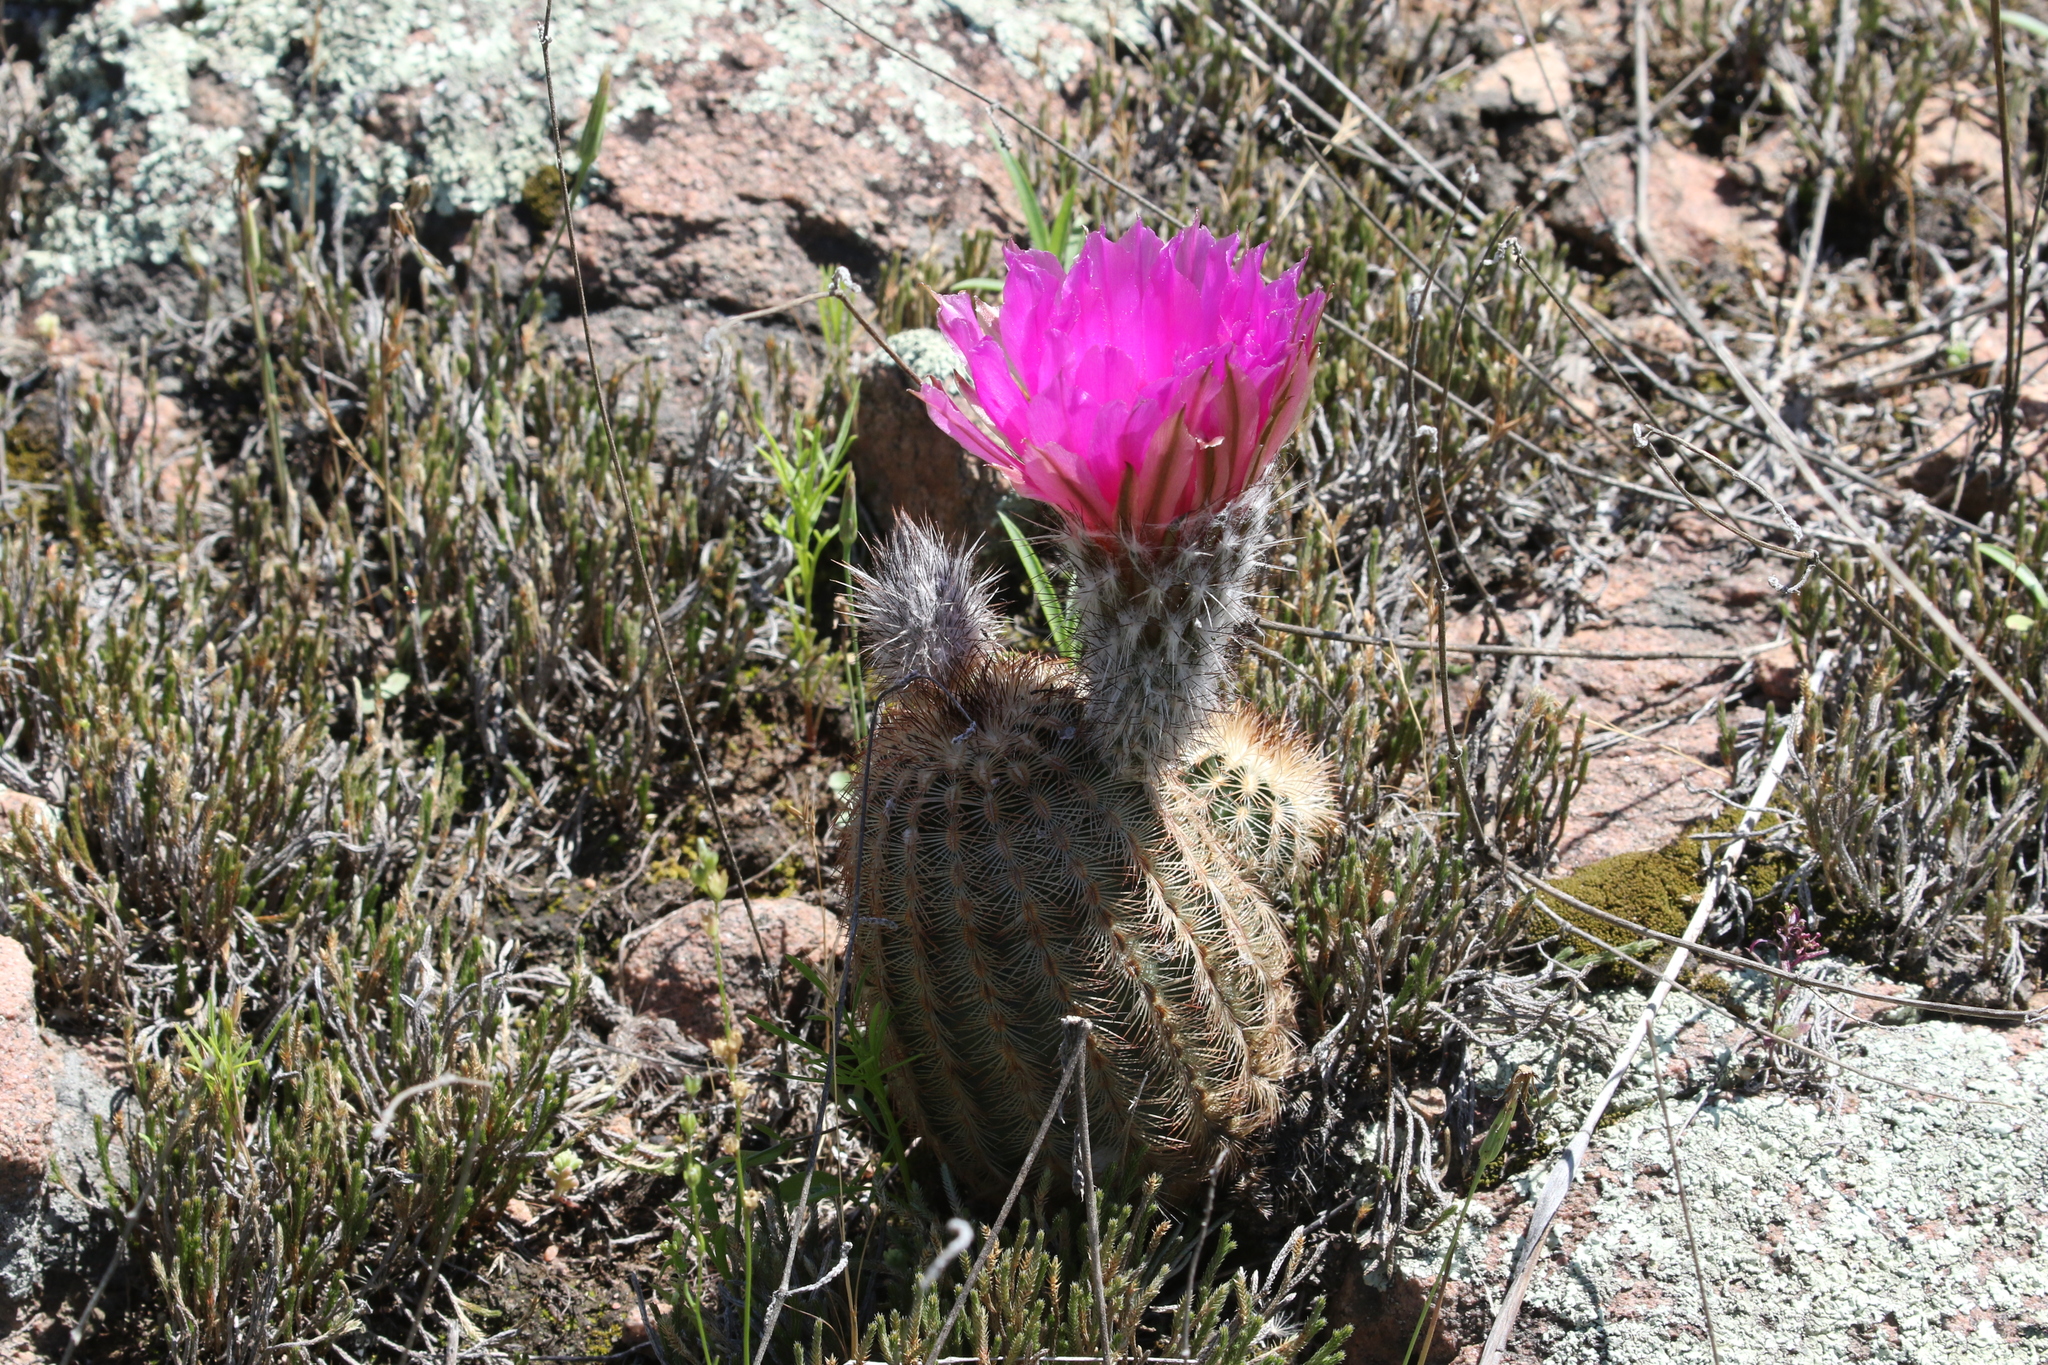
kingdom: Plantae
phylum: Tracheophyta
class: Magnoliopsida
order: Caryophyllales
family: Cactaceae
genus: Echinocereus
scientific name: Echinocereus reichenbachii
